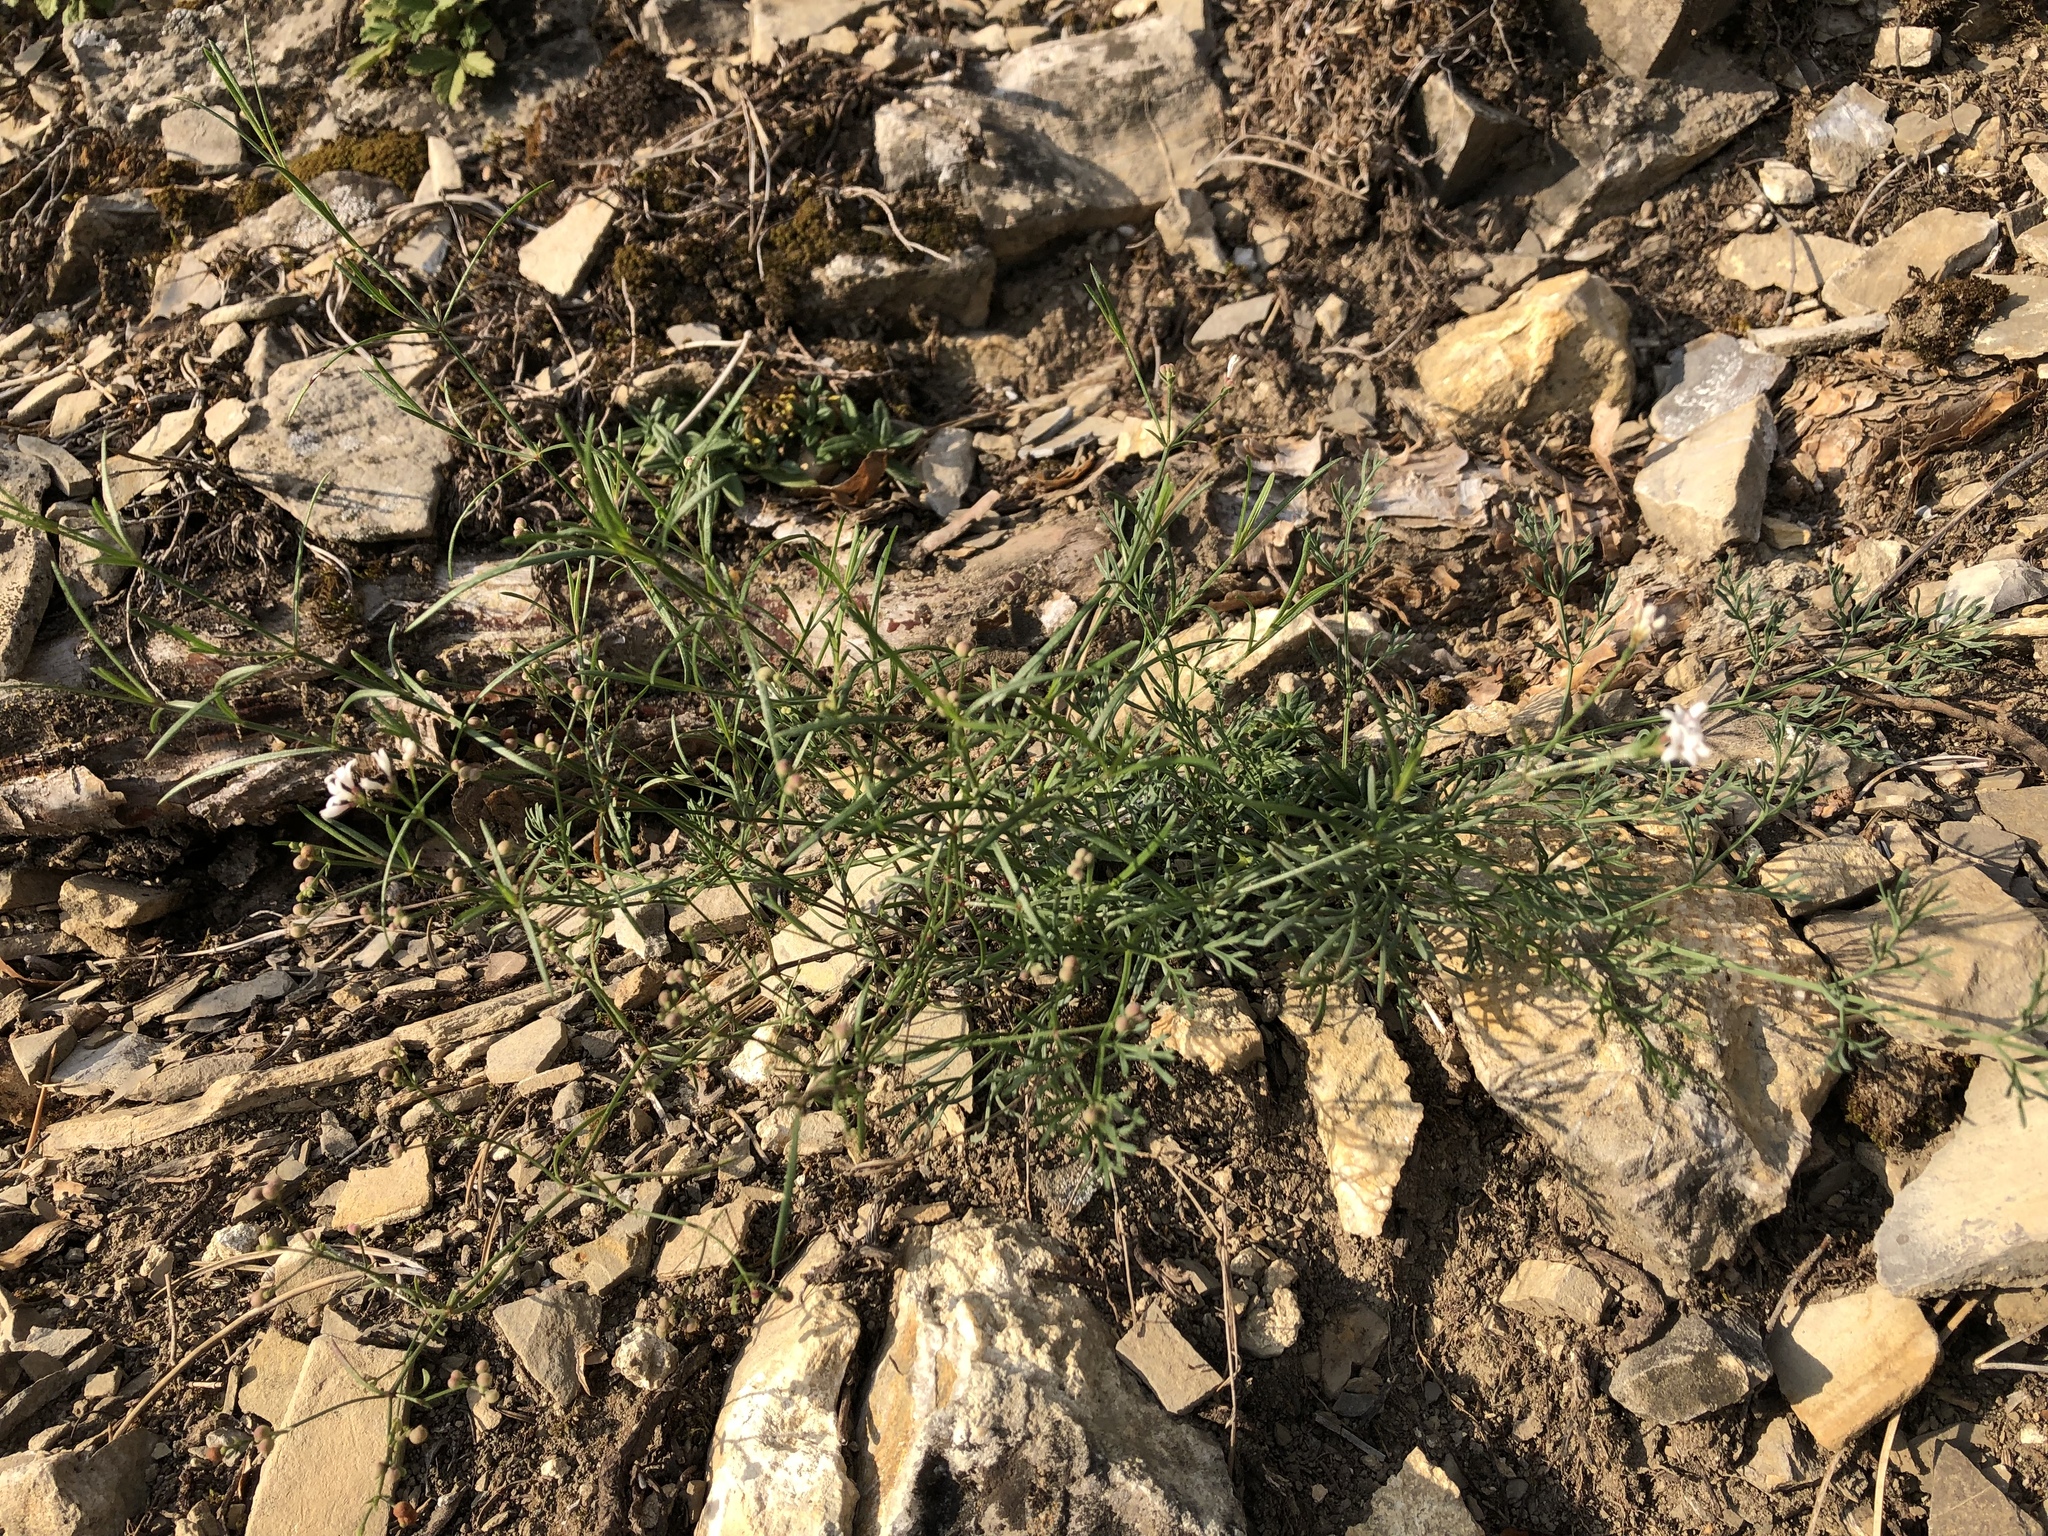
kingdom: Plantae
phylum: Tracheophyta
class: Magnoliopsida
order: Gentianales
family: Rubiaceae
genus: Cynanchica
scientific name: Cynanchica pyrenaica
